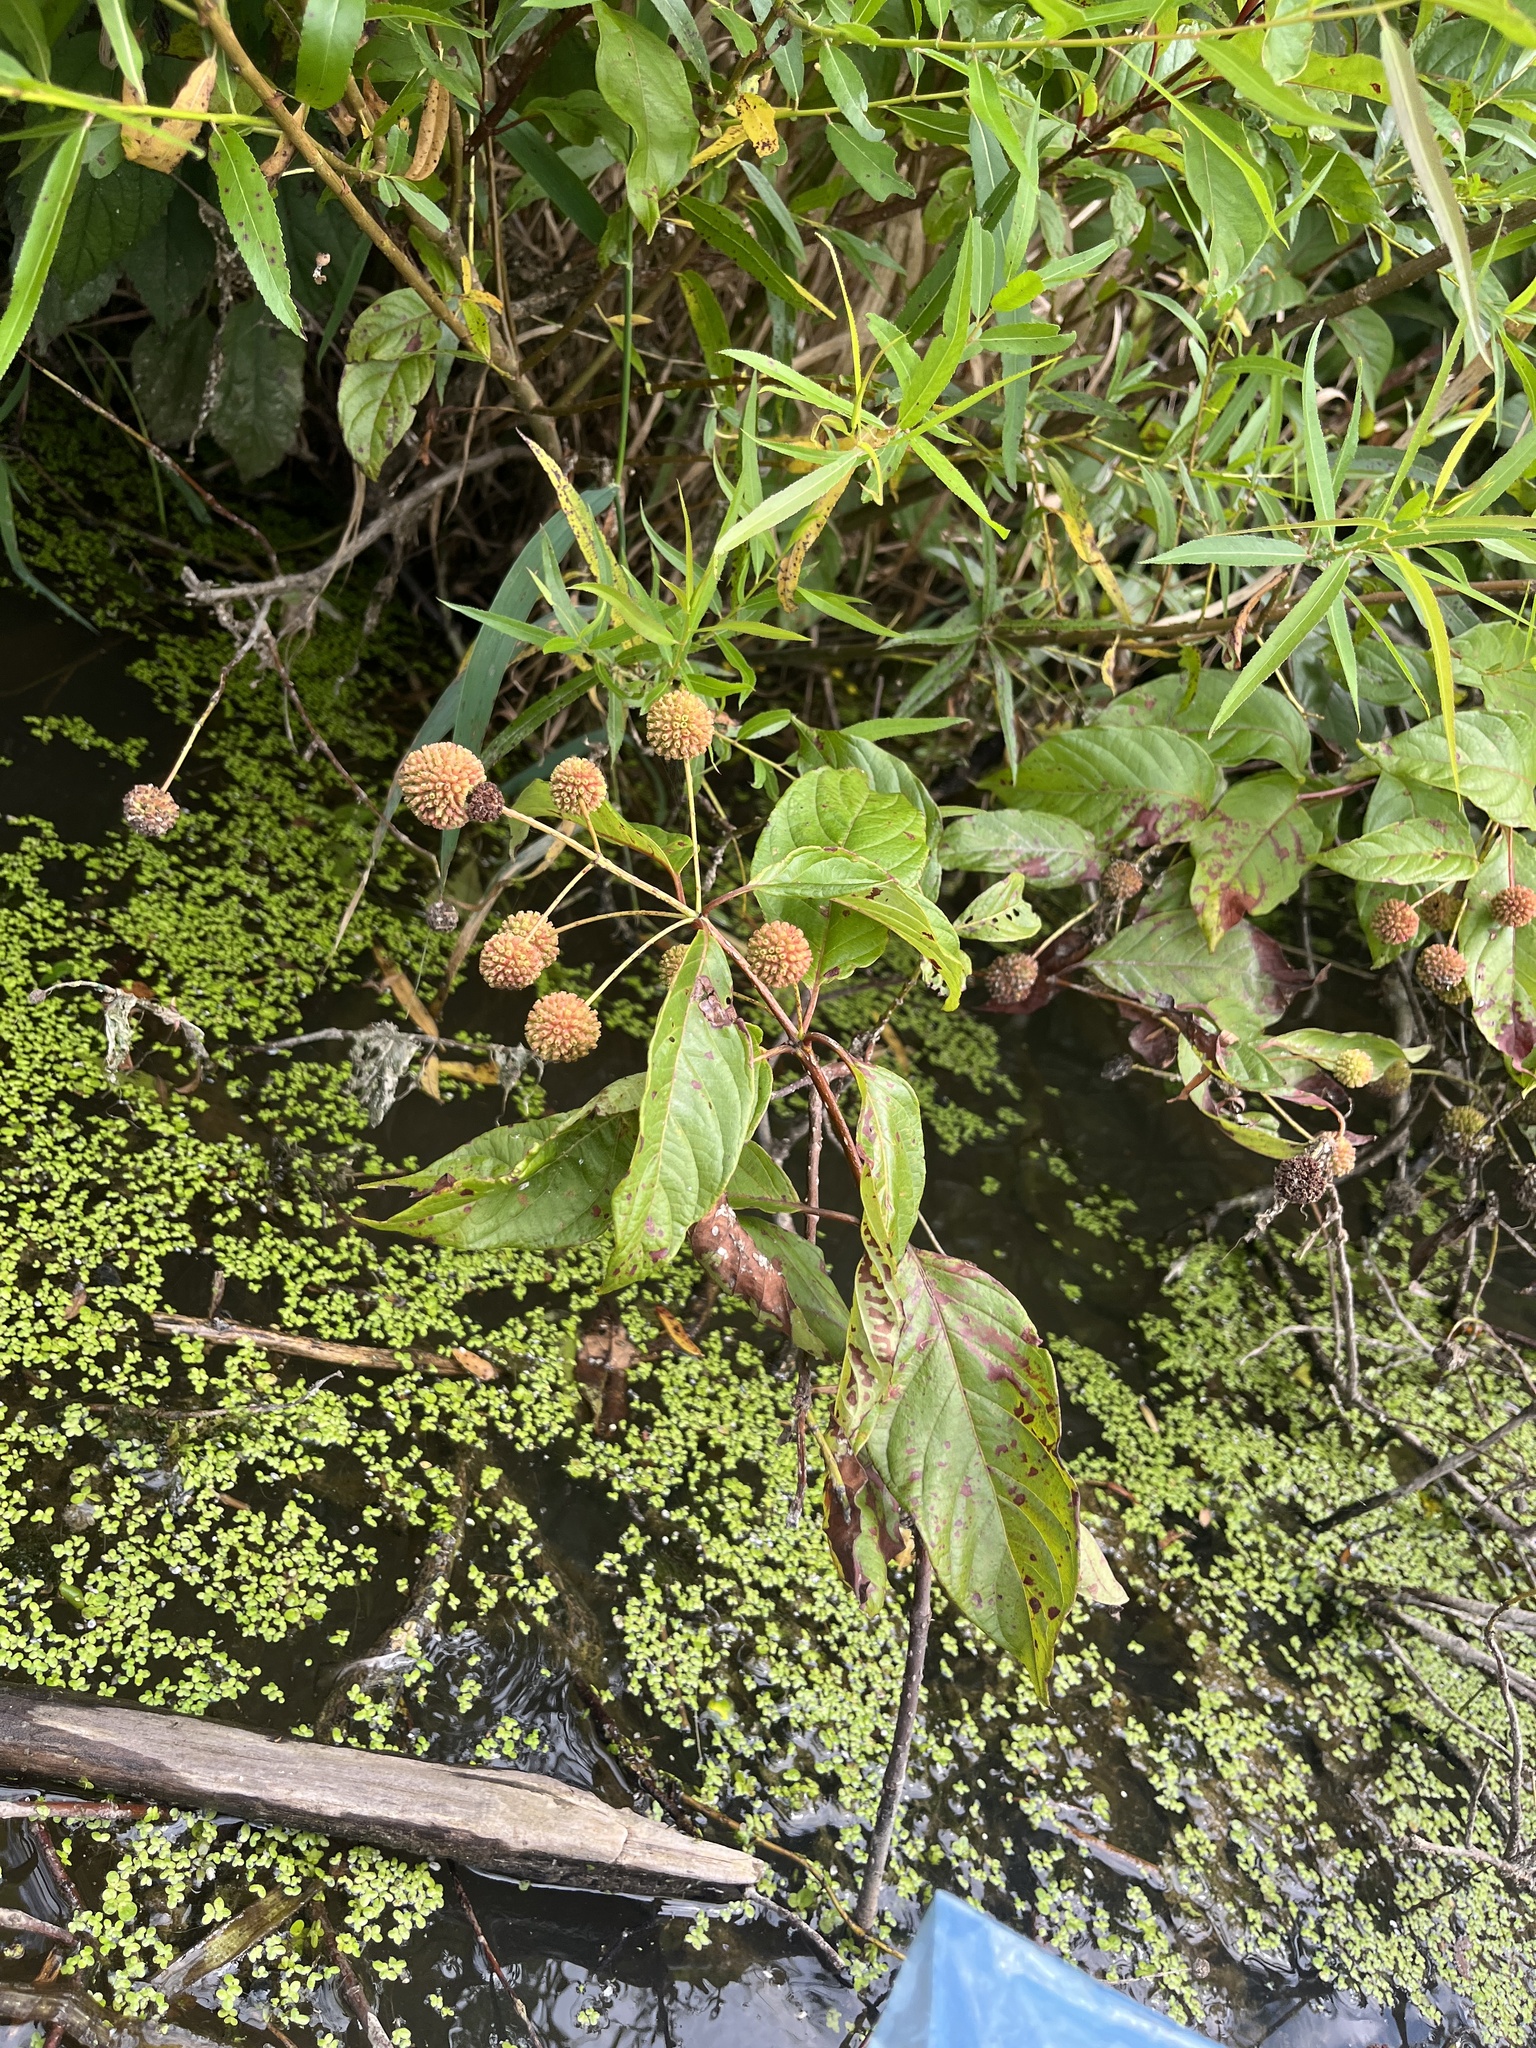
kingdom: Plantae
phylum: Tracheophyta
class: Magnoliopsida
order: Gentianales
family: Rubiaceae
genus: Cephalanthus
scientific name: Cephalanthus occidentalis
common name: Button-willow
